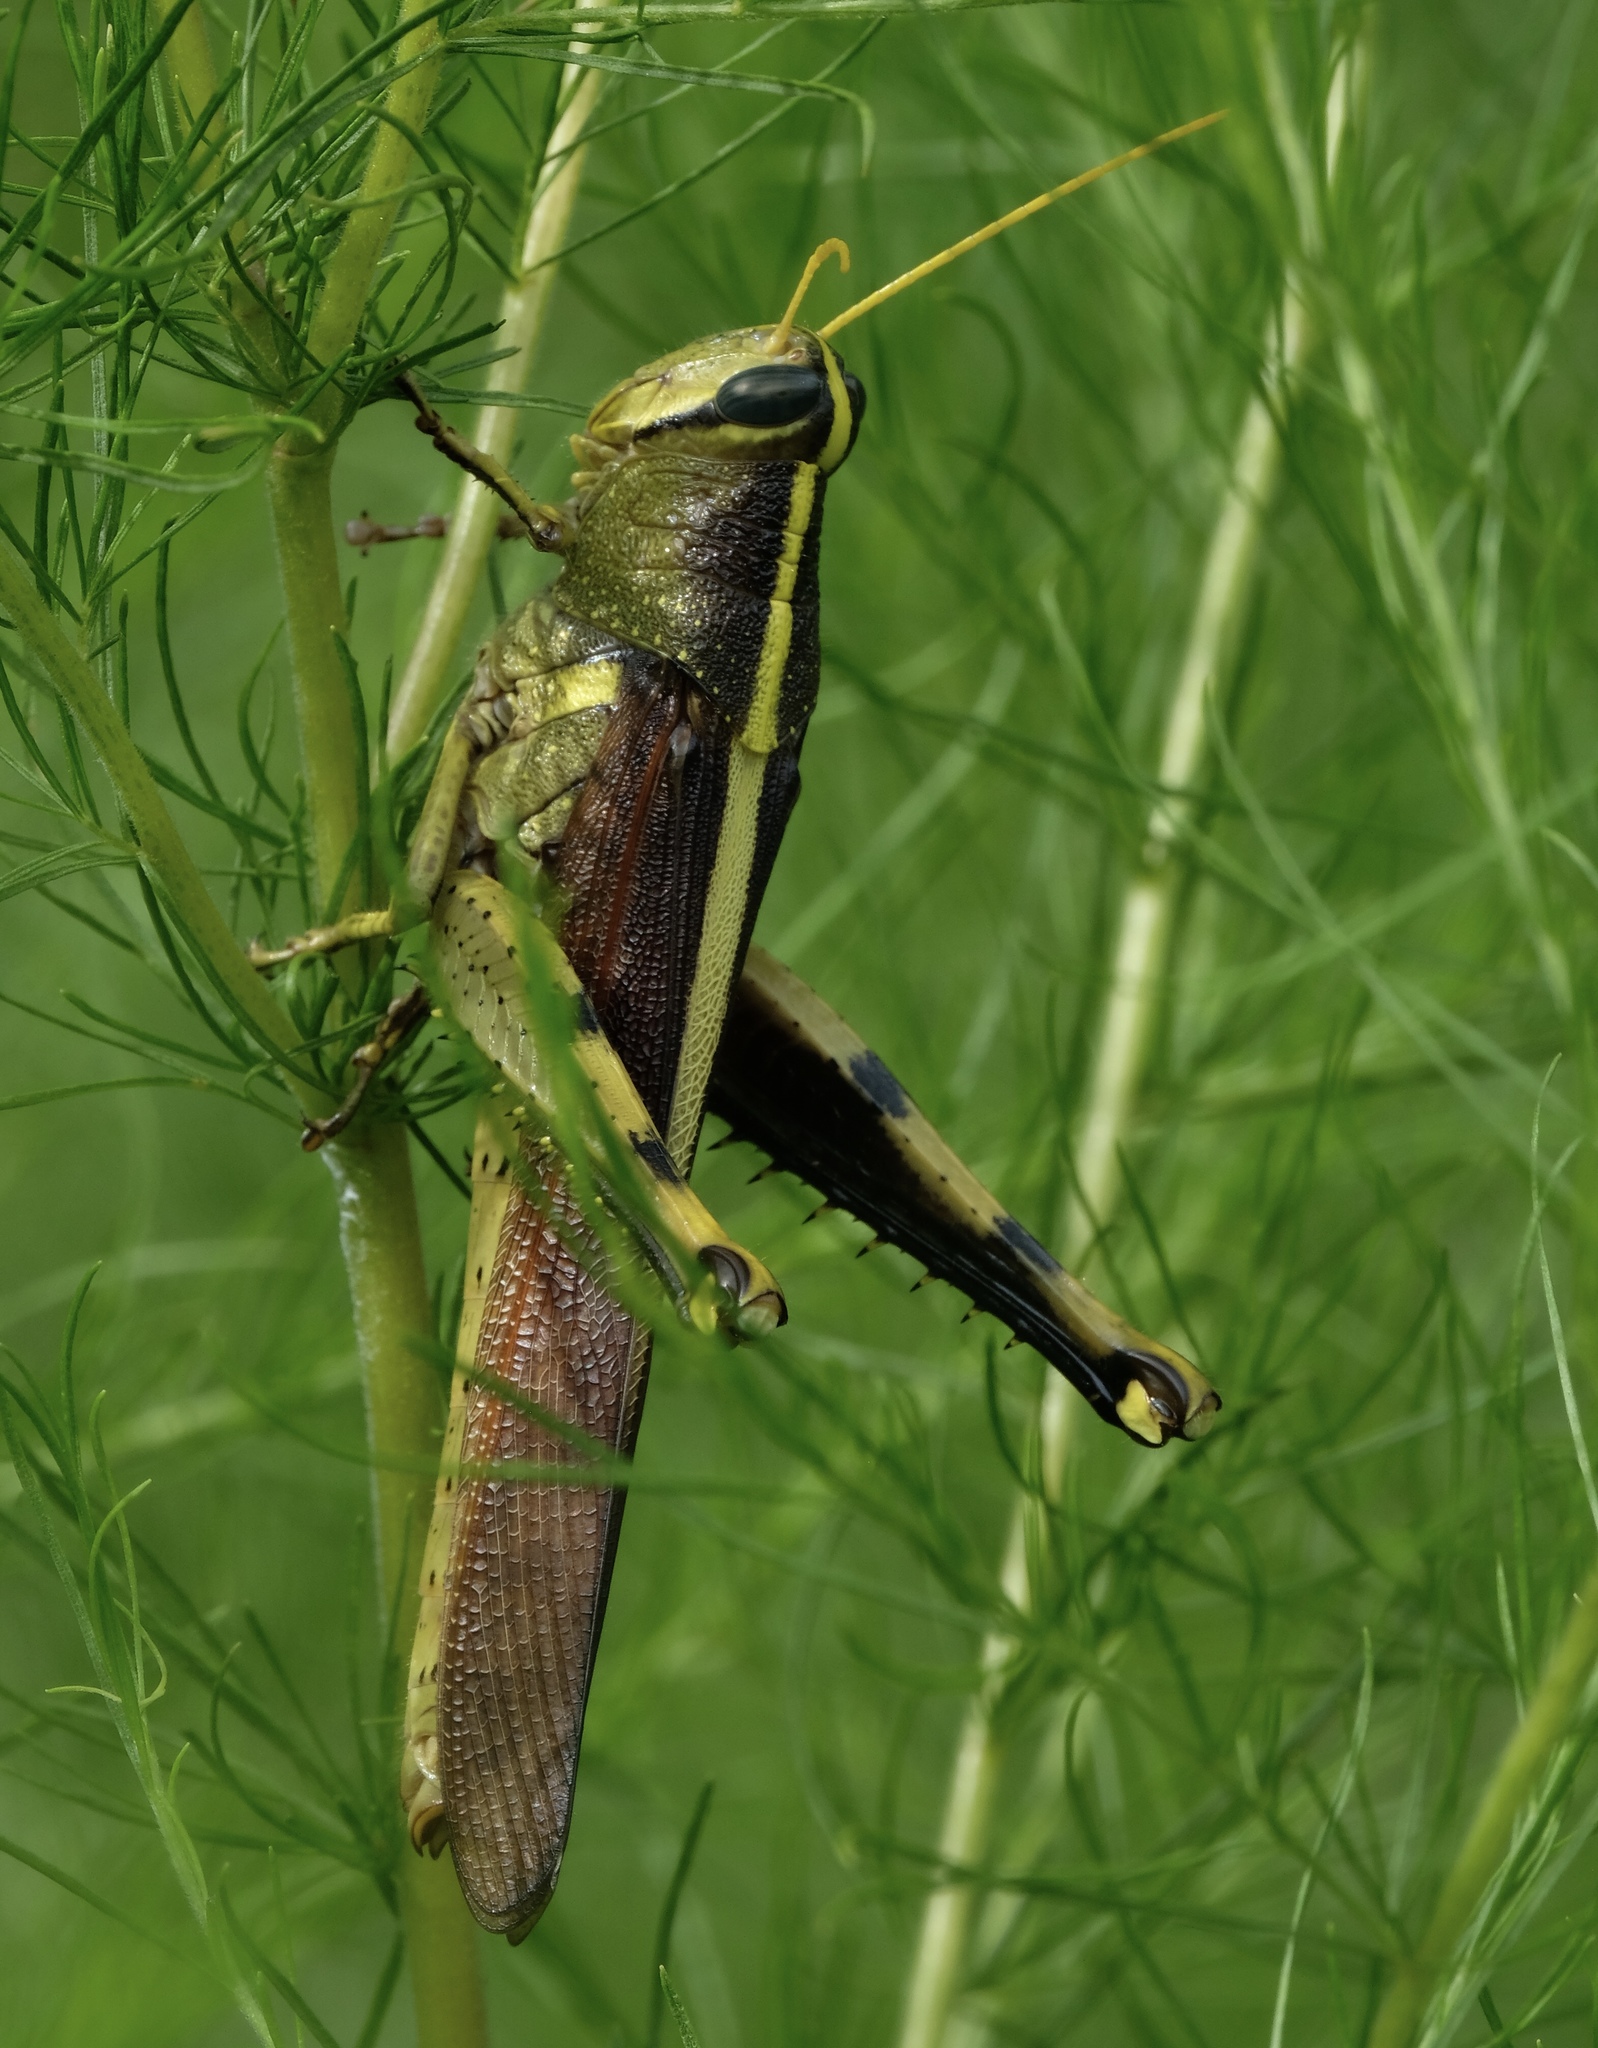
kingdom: Animalia
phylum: Arthropoda
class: Insecta
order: Orthoptera
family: Acrididae
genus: Schistocerca
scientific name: Schistocerca obscura
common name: Obscure bird grasshopper
